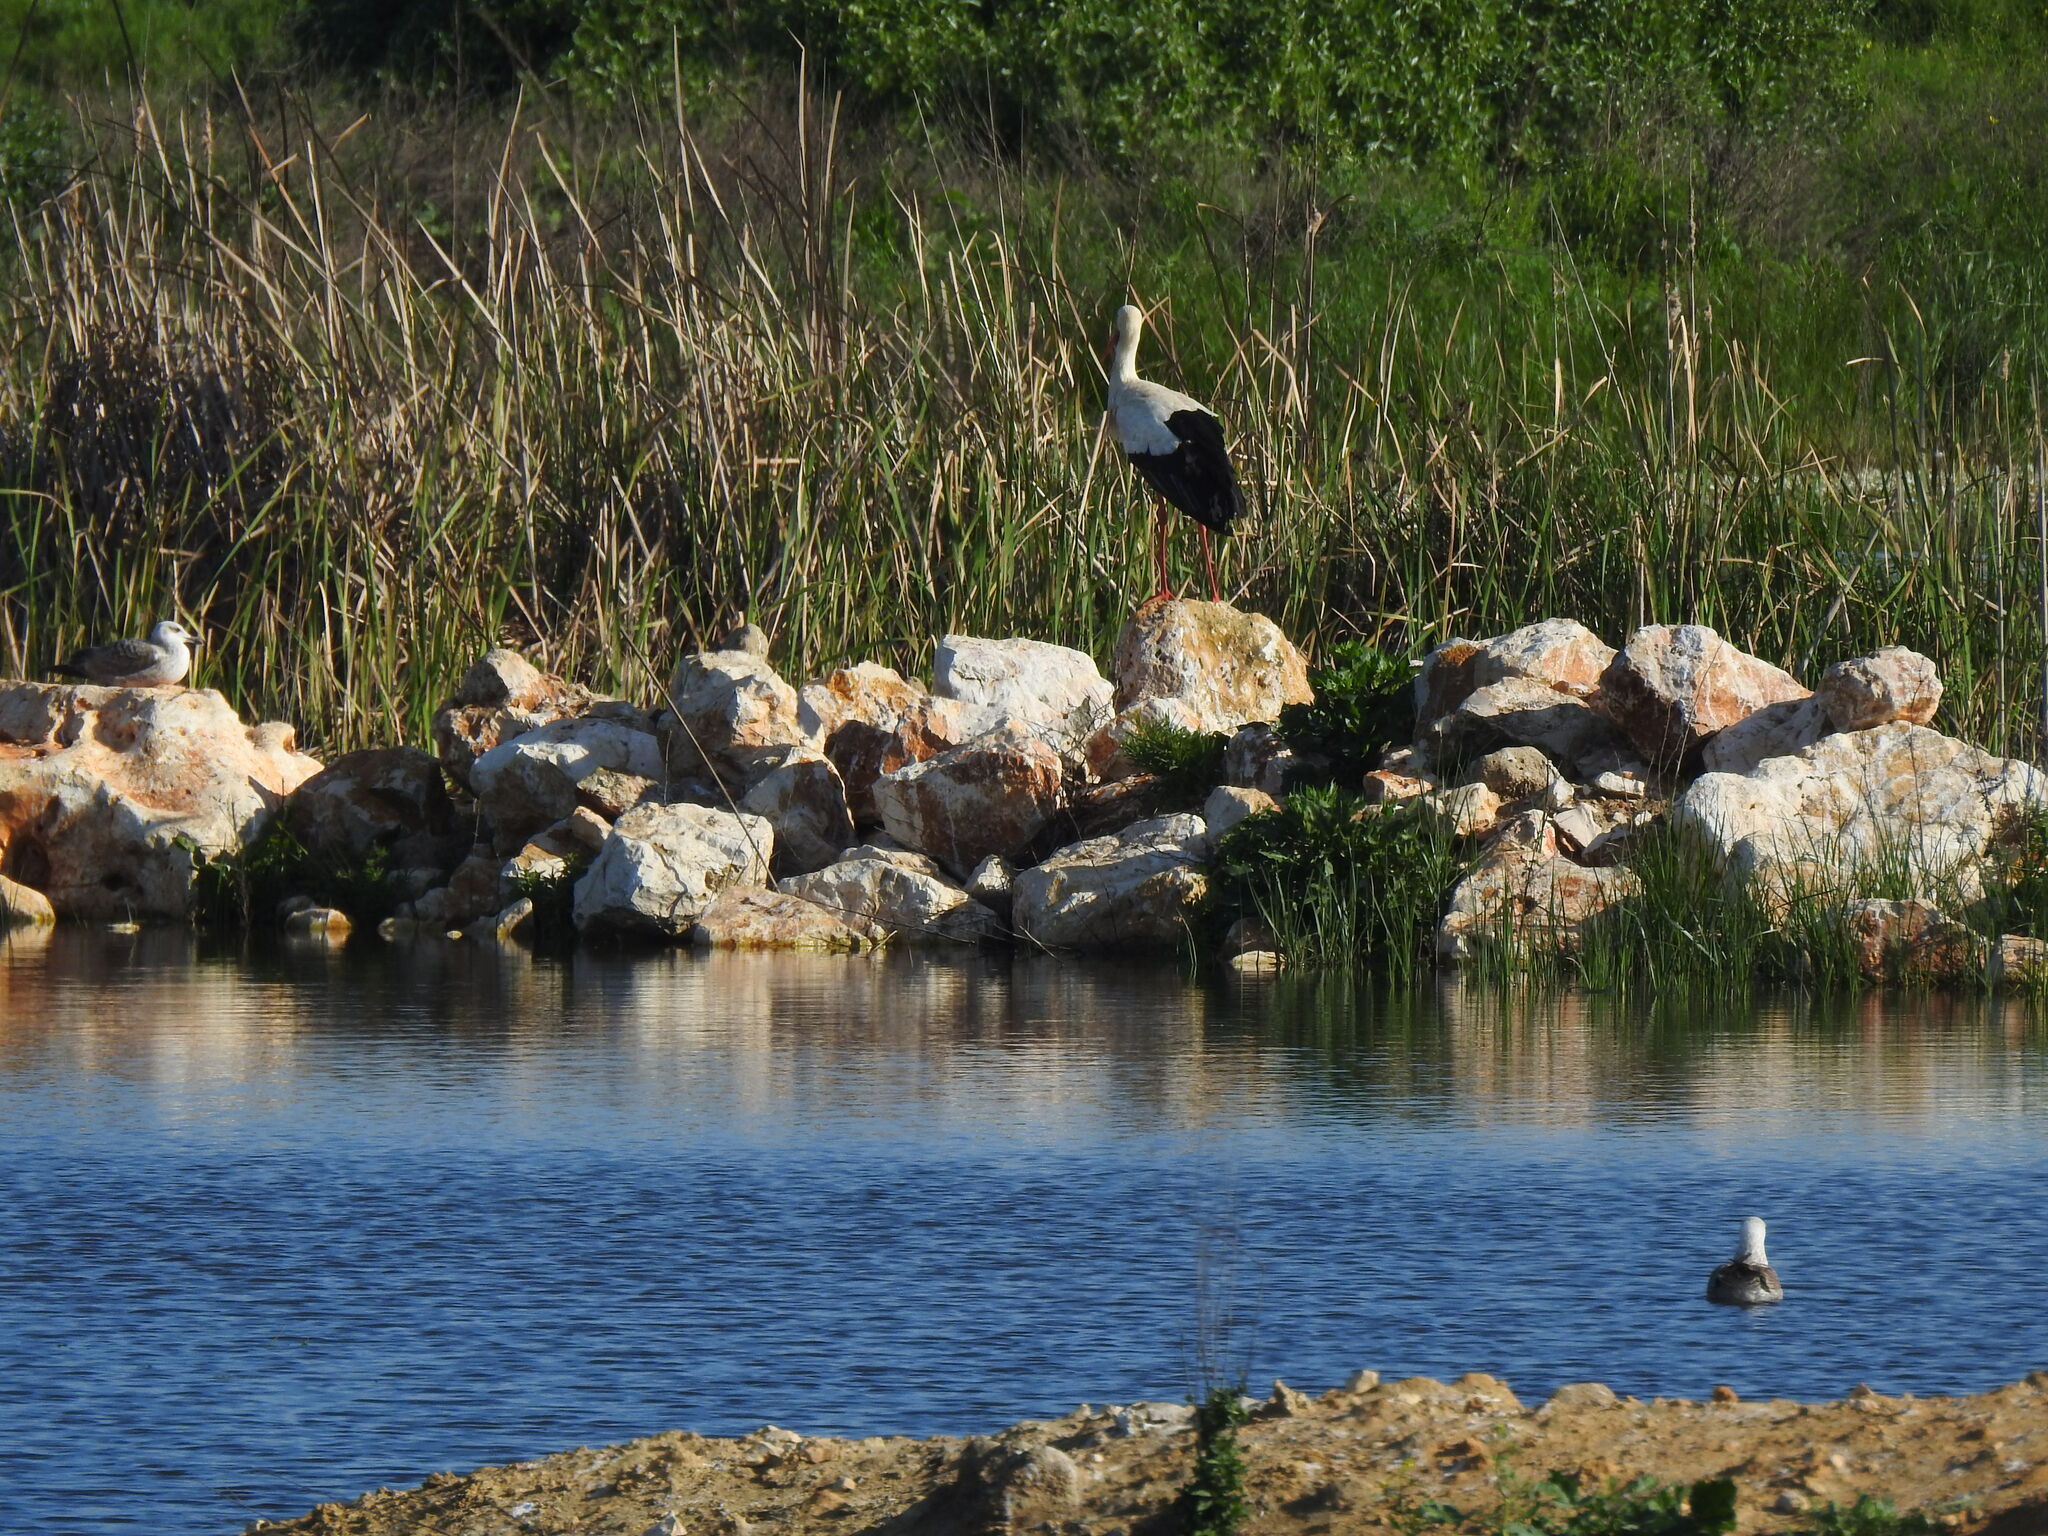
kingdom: Animalia
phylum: Chordata
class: Aves
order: Ciconiiformes
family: Ciconiidae
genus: Ciconia
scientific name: Ciconia ciconia
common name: White stork
